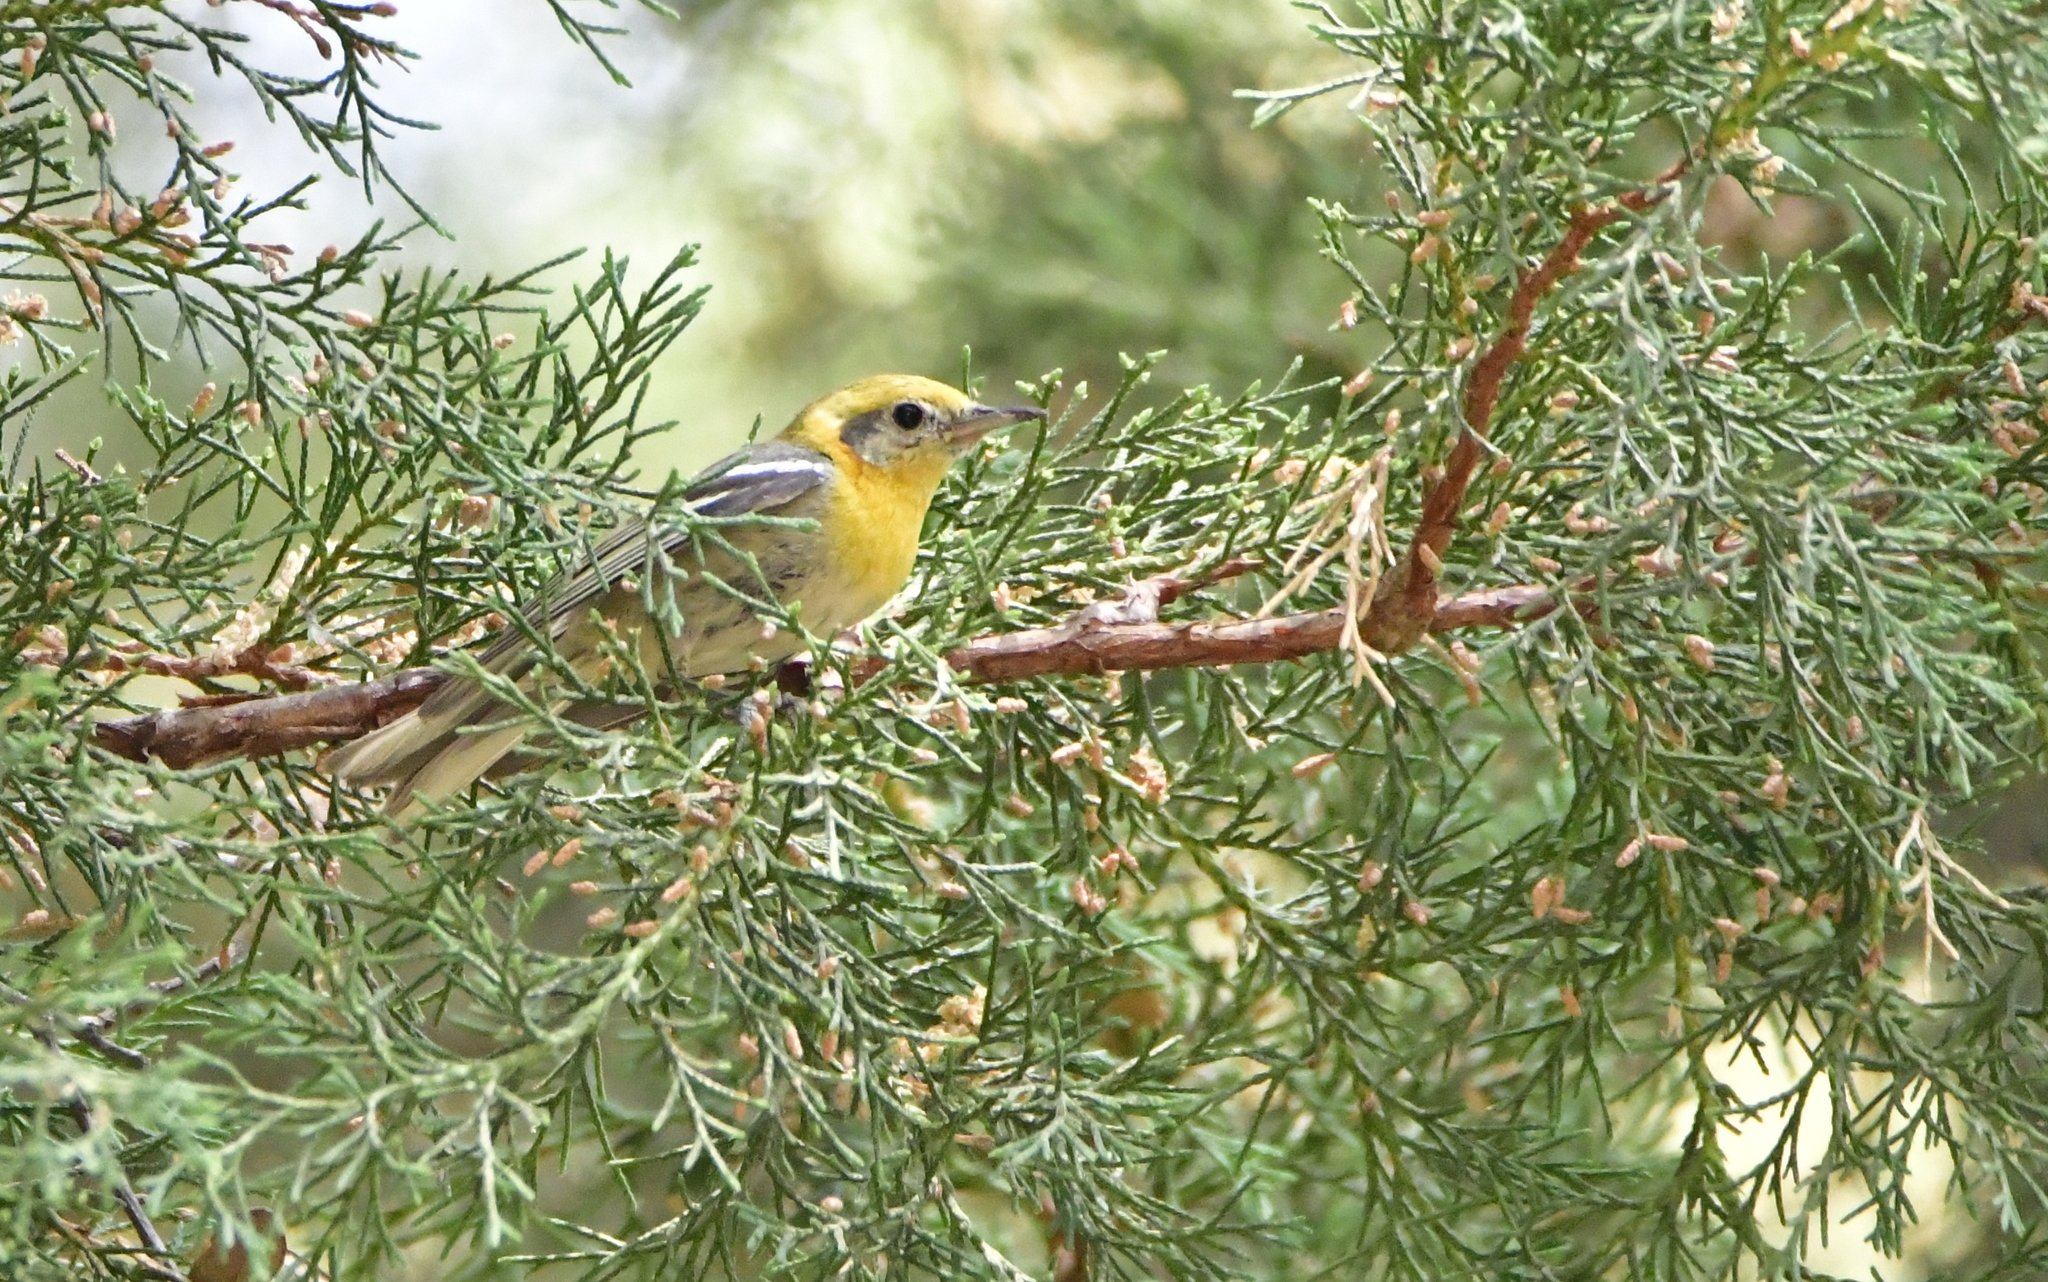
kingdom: Animalia
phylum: Chordata
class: Aves
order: Passeriformes
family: Peucedramidae
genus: Peucedramus
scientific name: Peucedramus taeniatus
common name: Olive warbler
